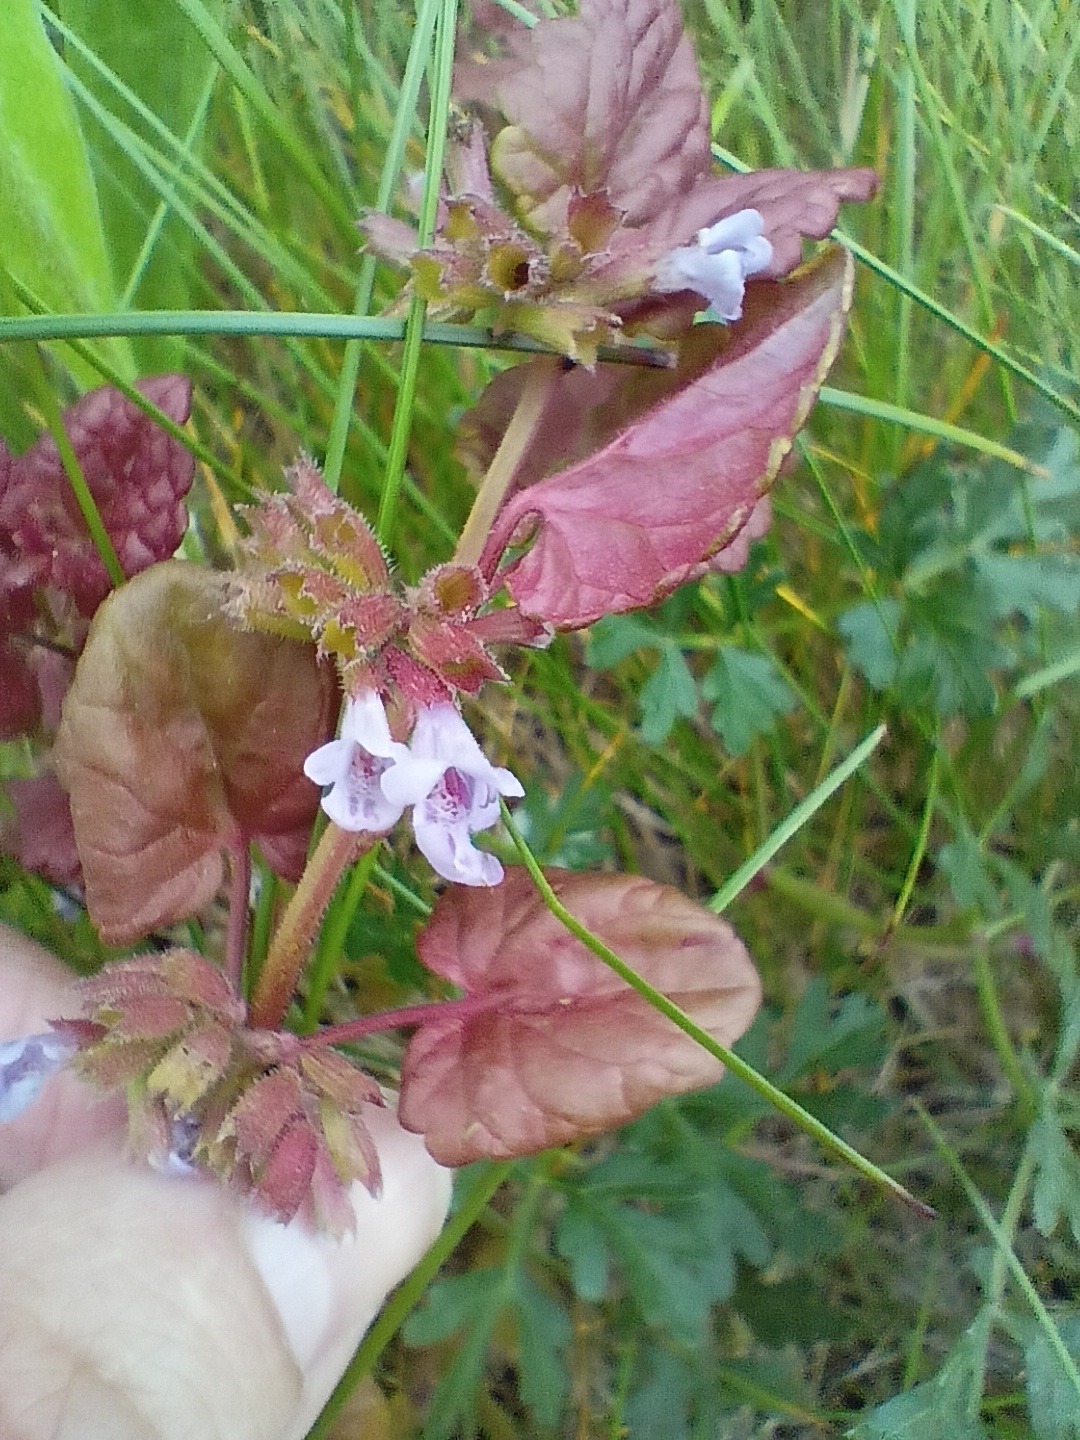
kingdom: Plantae
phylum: Tracheophyta
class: Magnoliopsida
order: Lamiales
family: Lamiaceae
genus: Glechoma
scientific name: Glechoma hederacea
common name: Ground ivy
